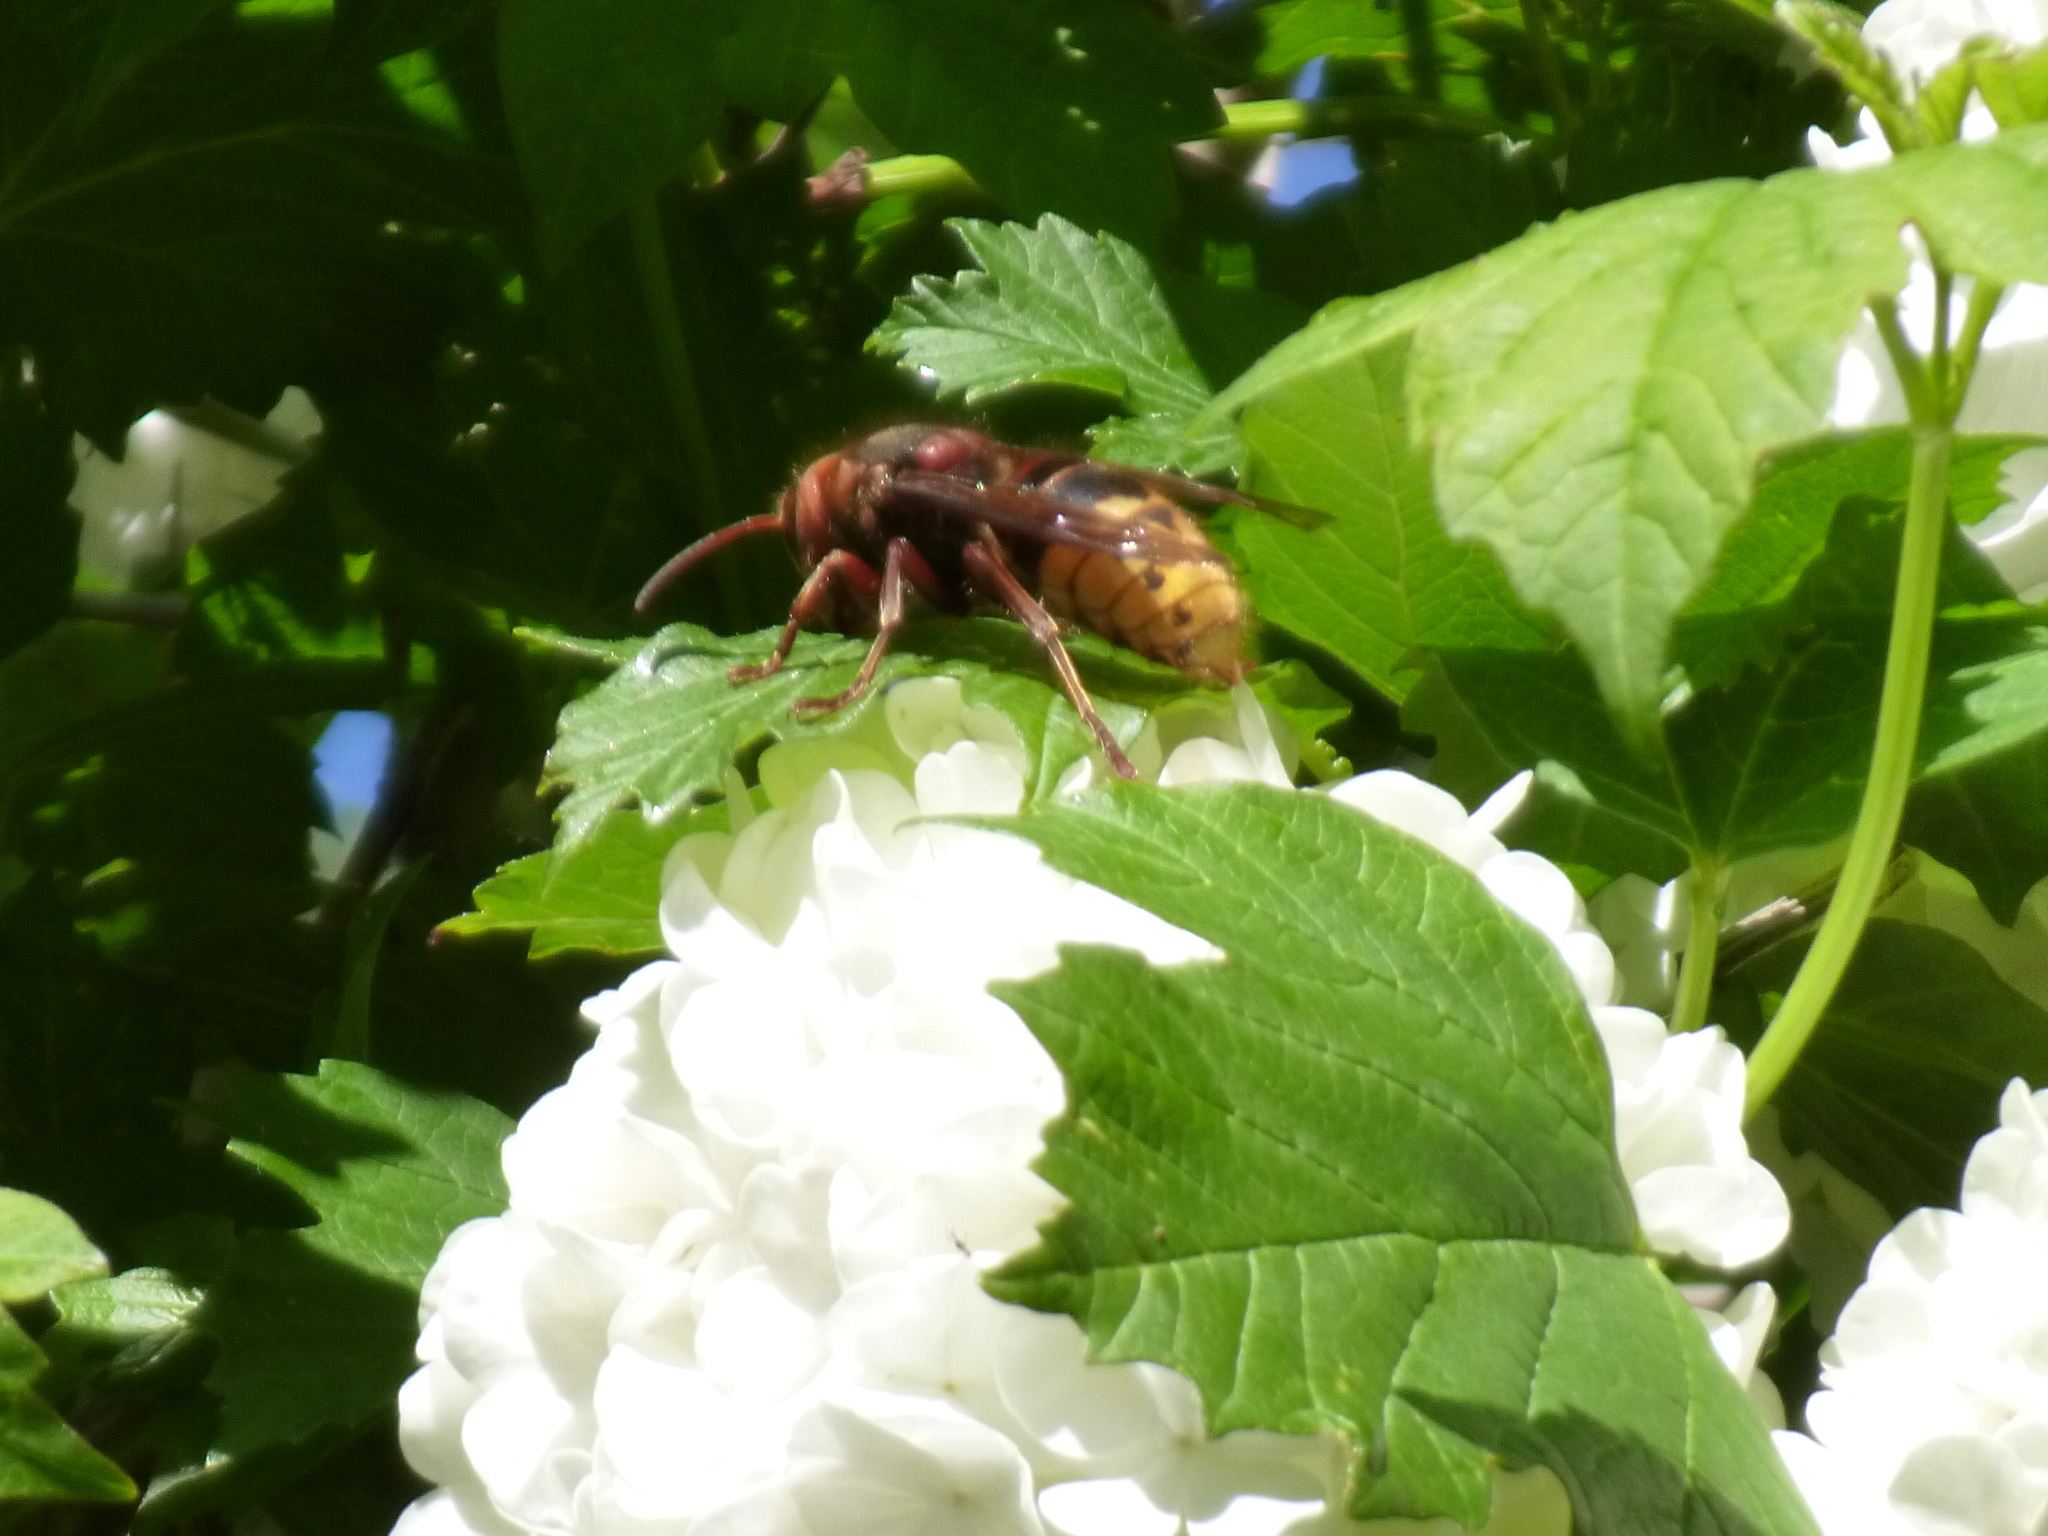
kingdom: Animalia
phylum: Arthropoda
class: Insecta
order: Hymenoptera
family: Vespidae
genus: Vespa
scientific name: Vespa crabro
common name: Hornet
